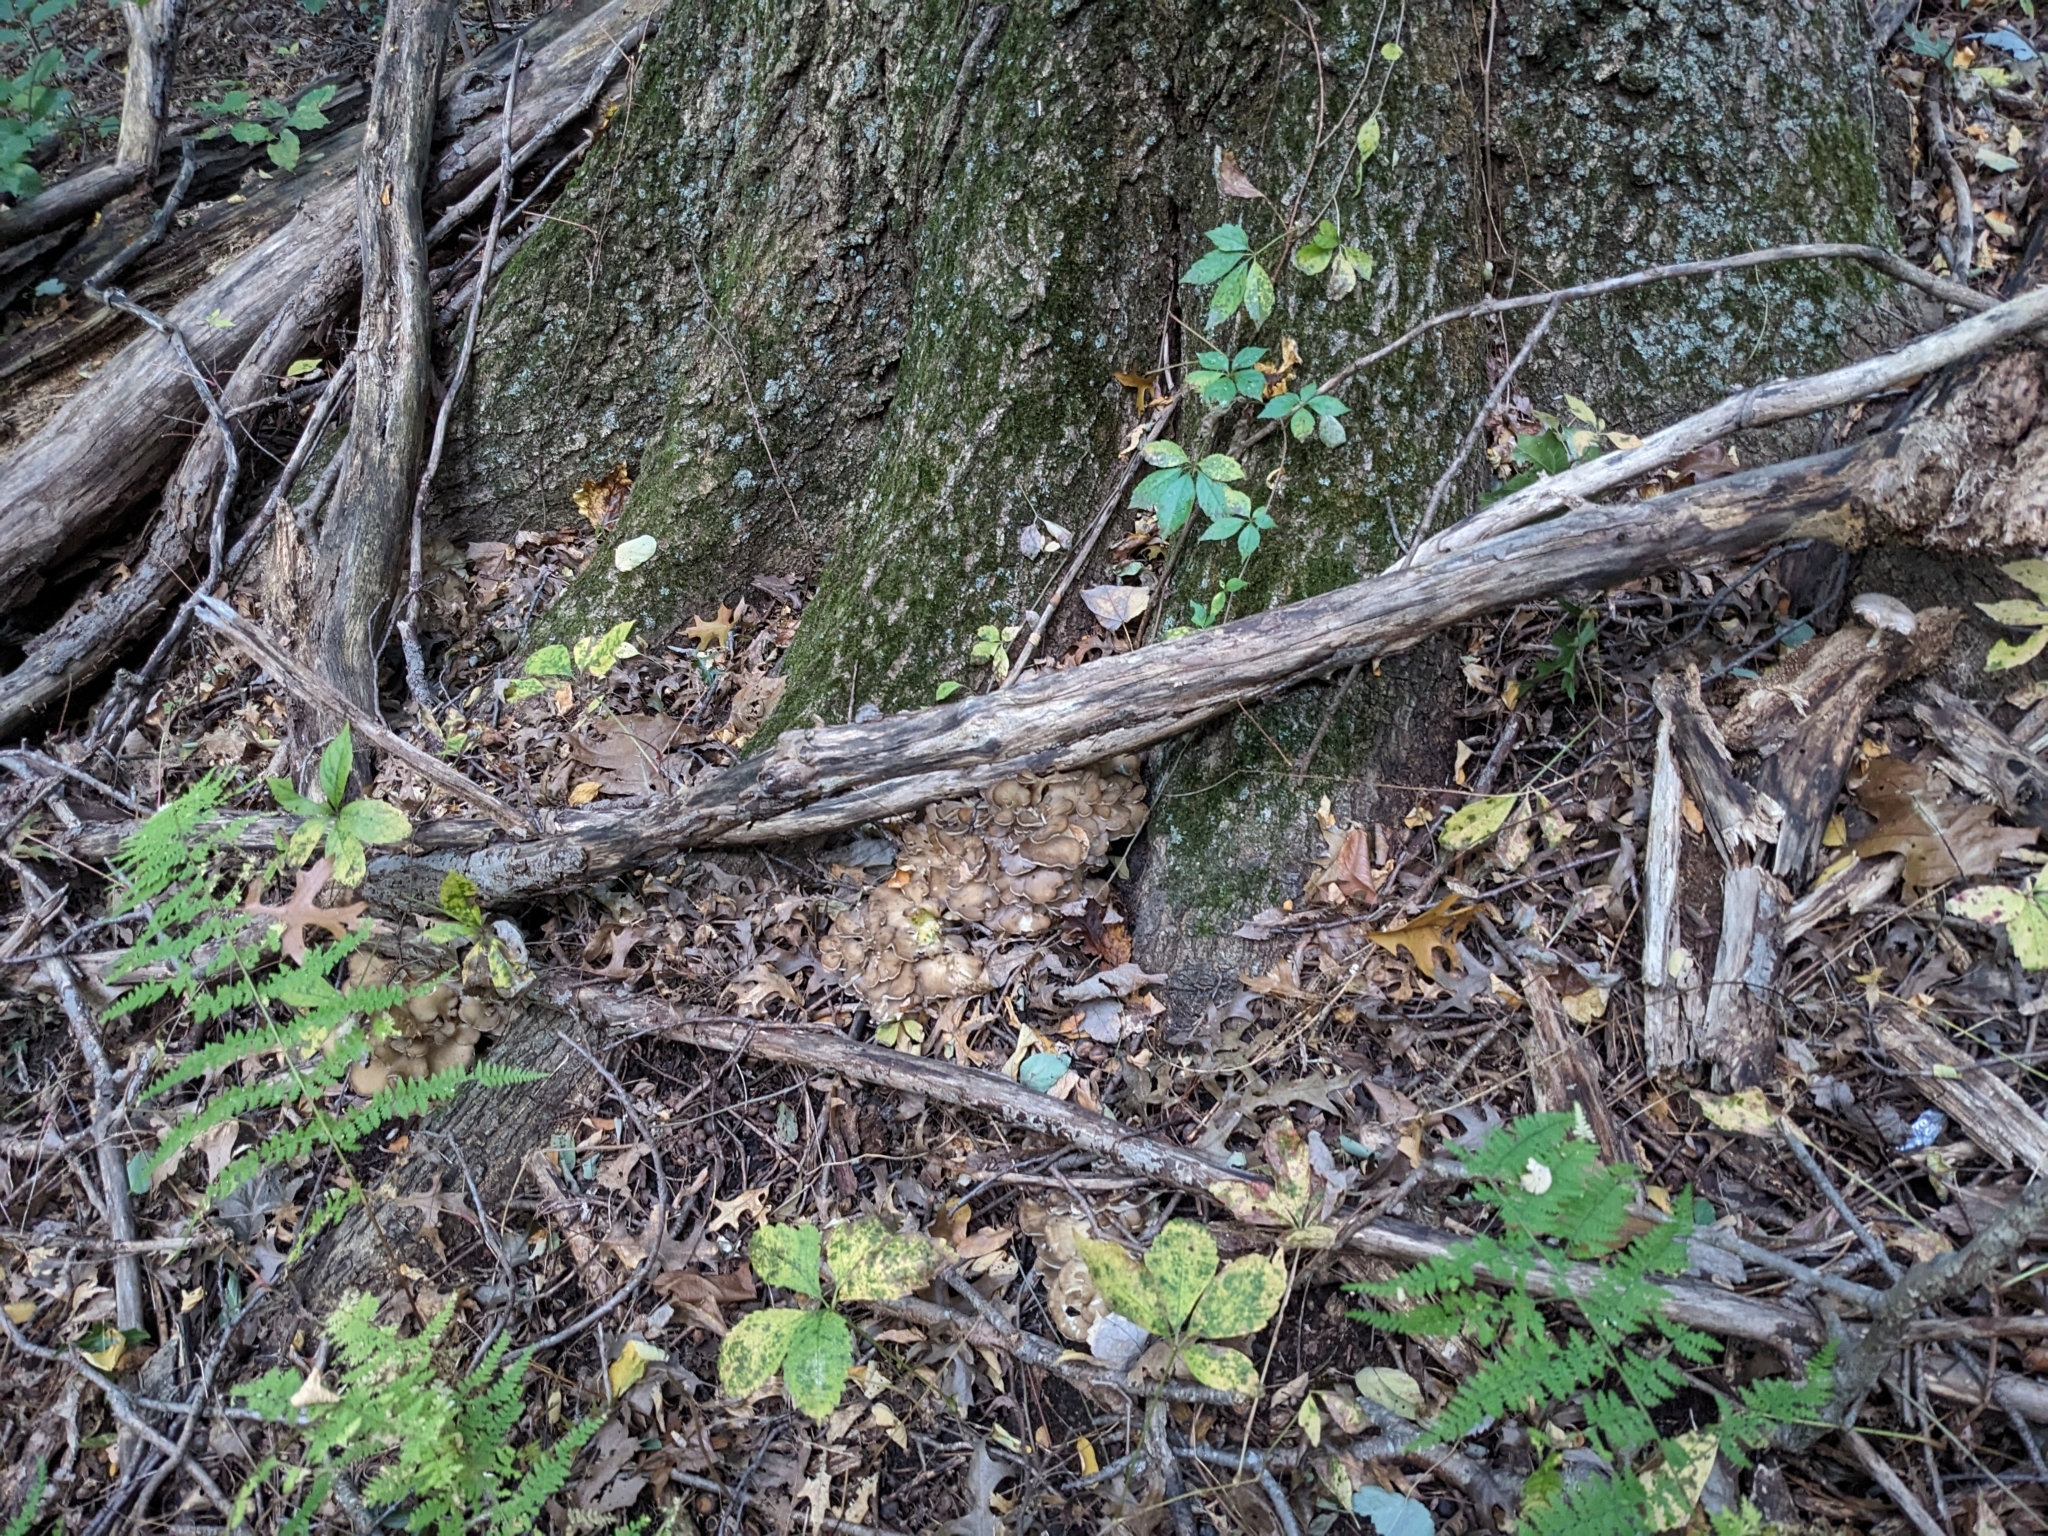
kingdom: Fungi
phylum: Basidiomycota
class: Agaricomycetes
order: Polyporales
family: Grifolaceae
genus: Grifola
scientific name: Grifola frondosa
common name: Hen of the woods
